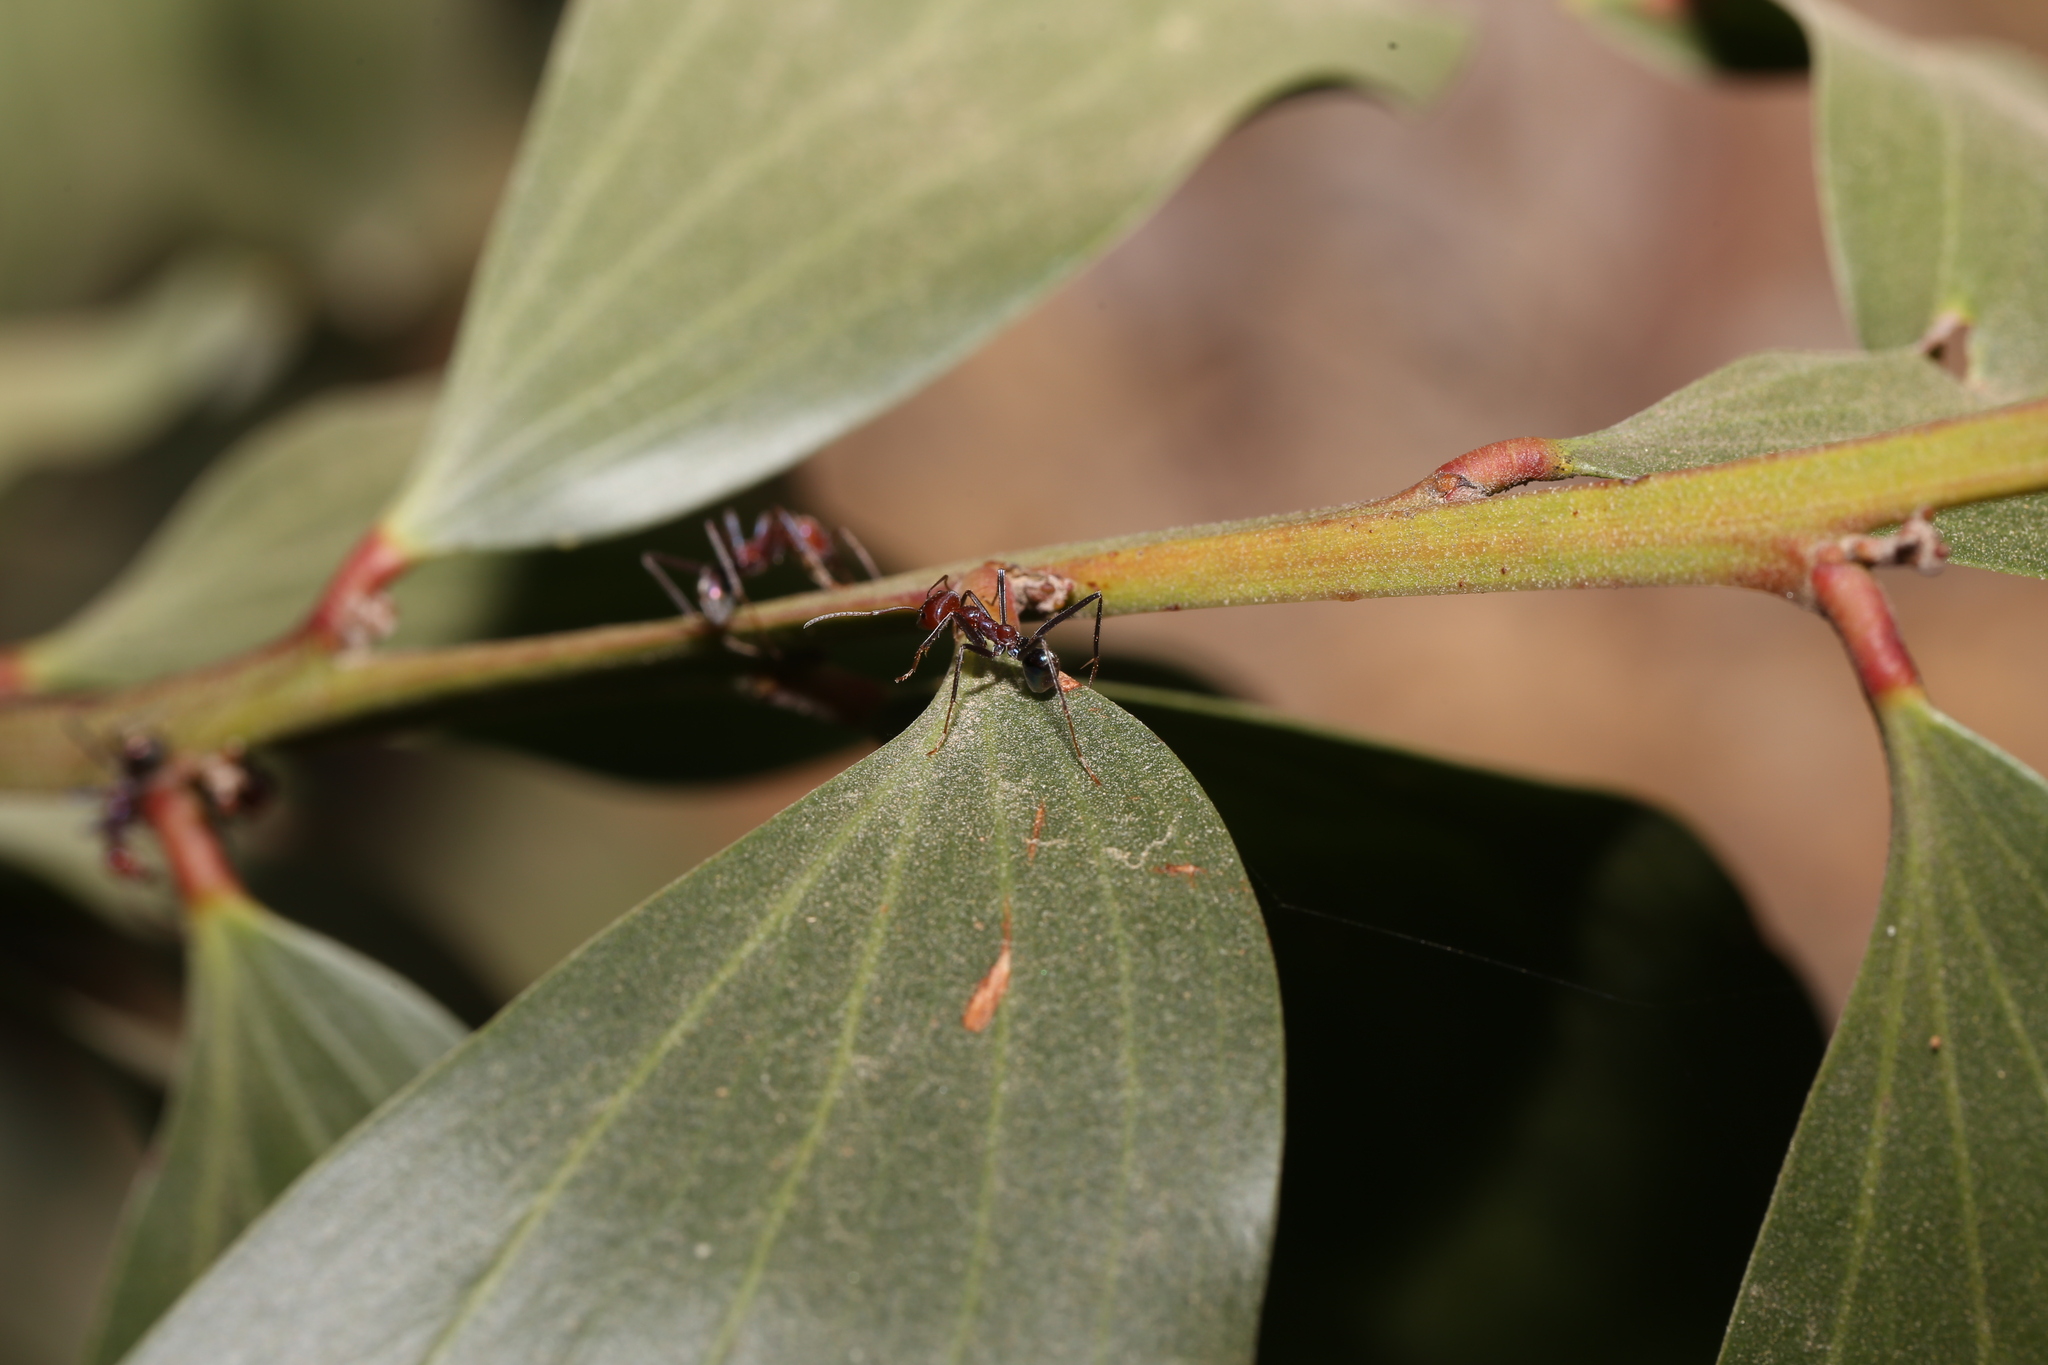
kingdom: Animalia
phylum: Arthropoda
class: Insecta
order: Hymenoptera
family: Formicidae
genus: Iridomyrmex
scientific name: Iridomyrmex purpureus
